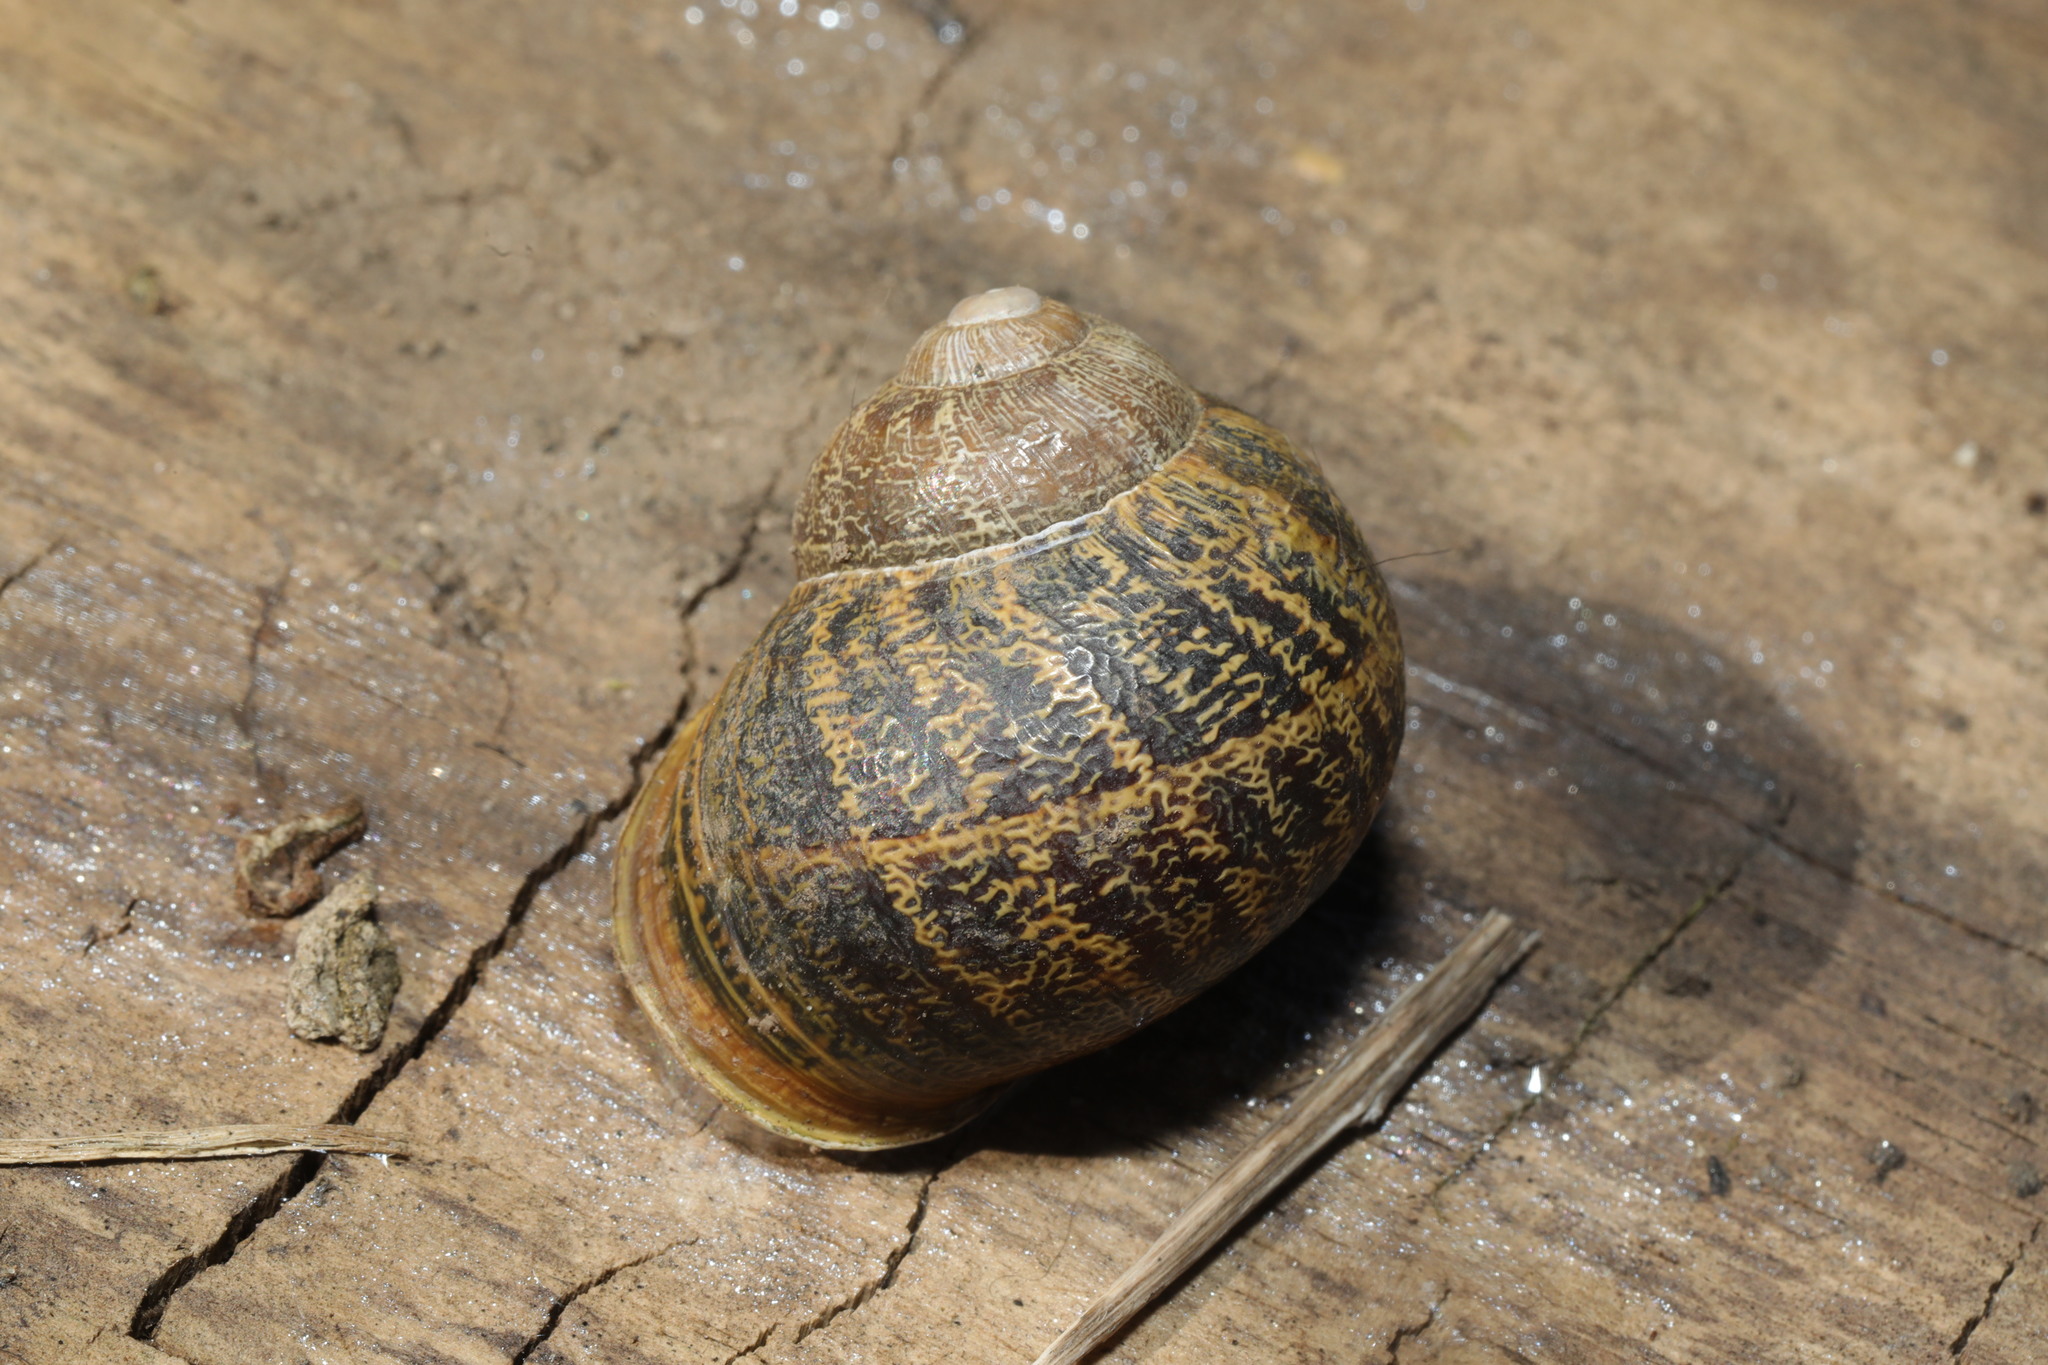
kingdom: Animalia
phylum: Mollusca
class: Gastropoda
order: Stylommatophora
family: Helicidae
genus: Cornu
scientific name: Cornu aspersum
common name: Brown garden snail
